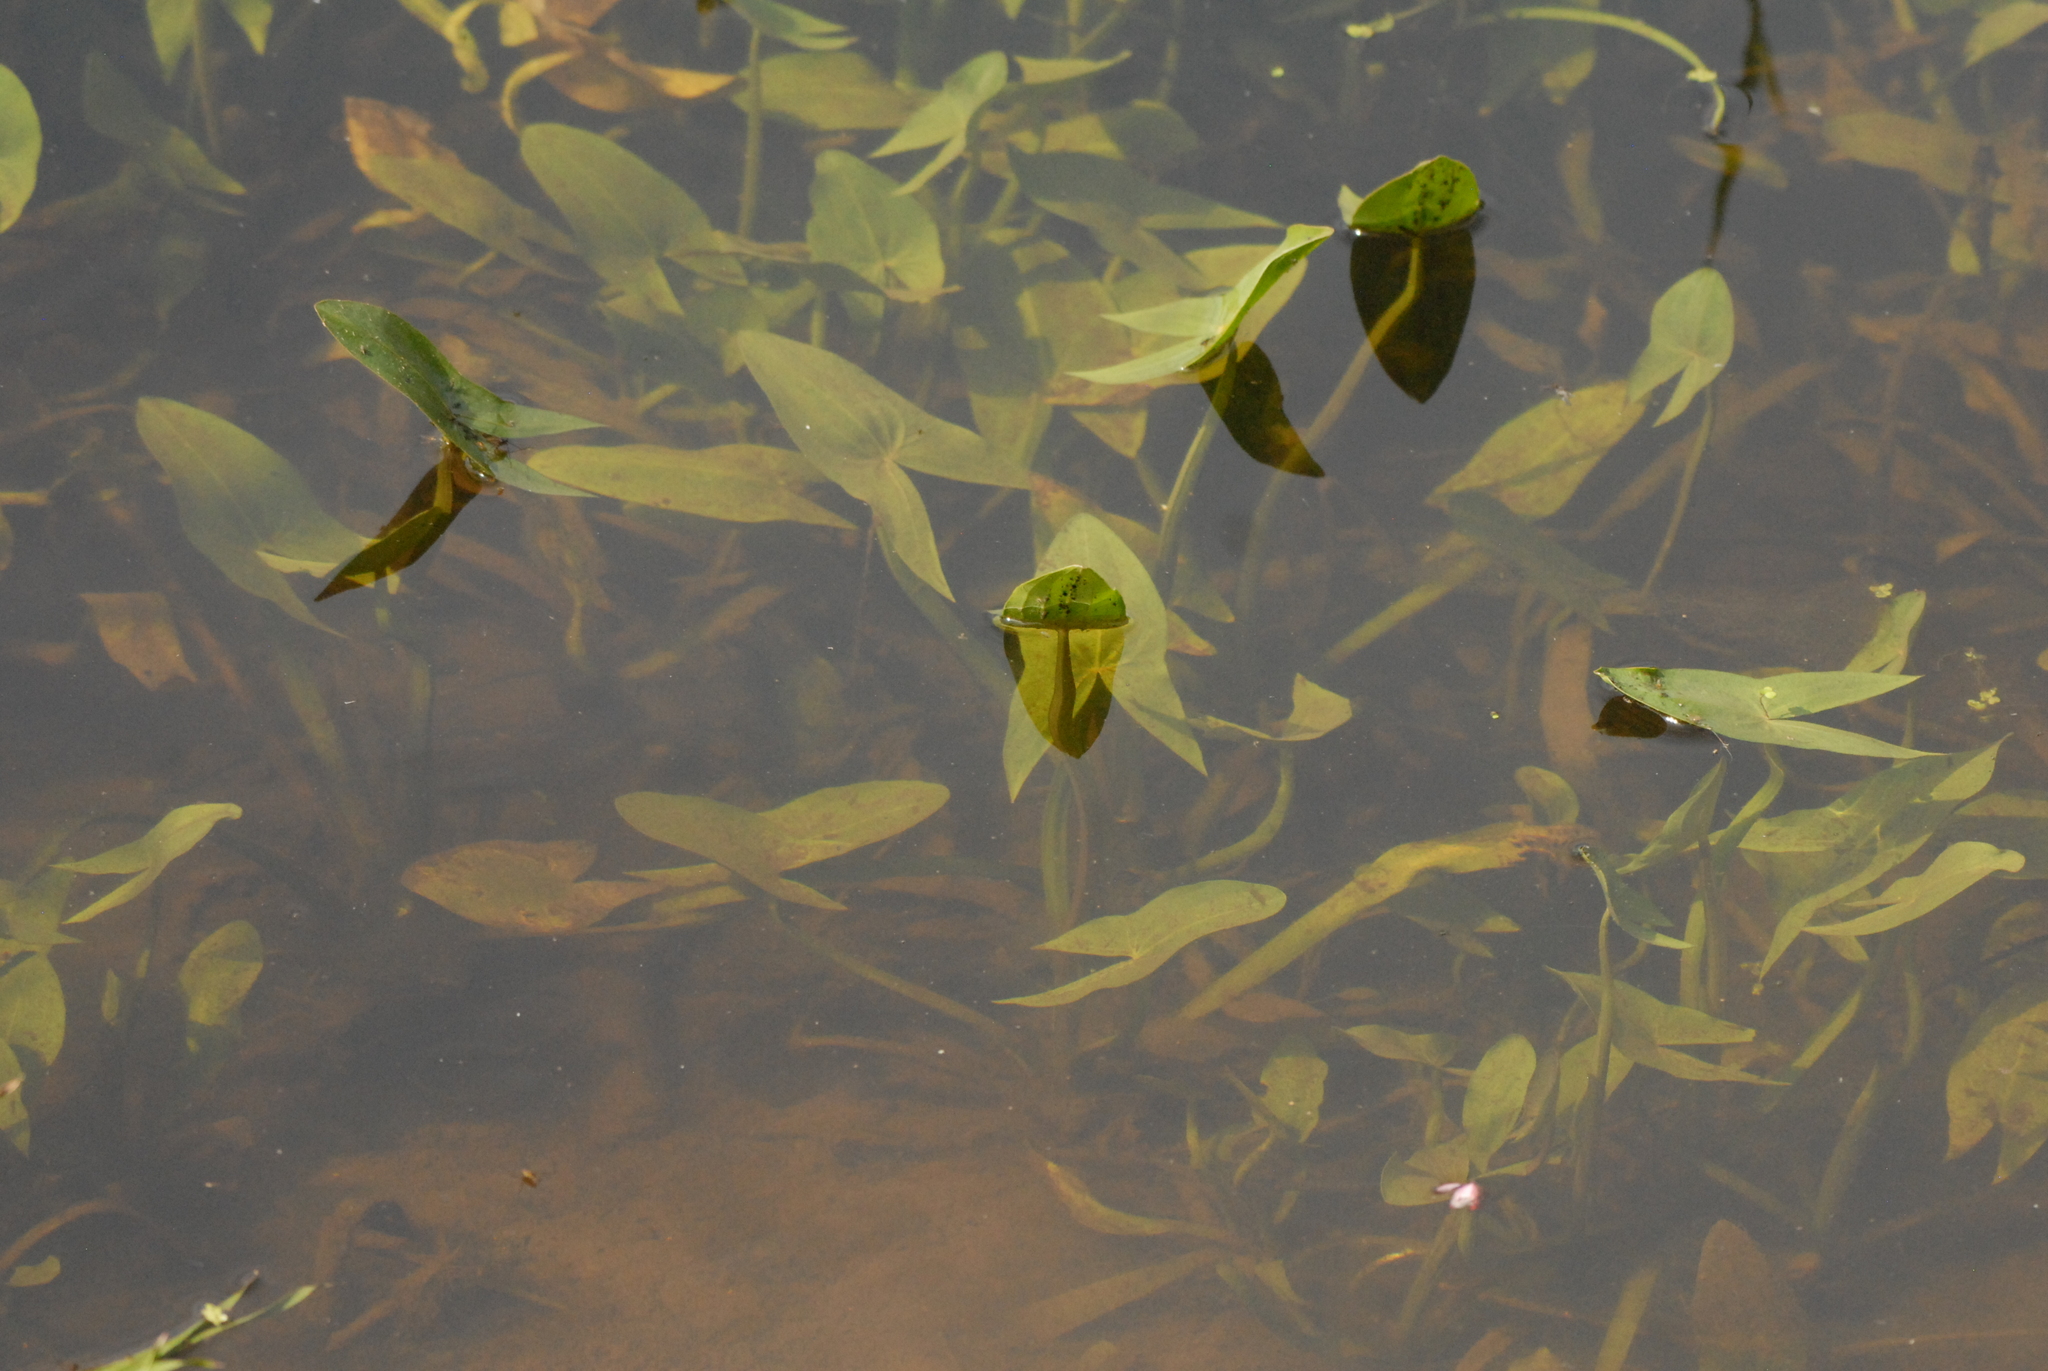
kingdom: Plantae
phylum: Tracheophyta
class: Liliopsida
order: Alismatales
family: Alismataceae
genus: Sagittaria
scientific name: Sagittaria sagittifolia
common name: Arrowhead
